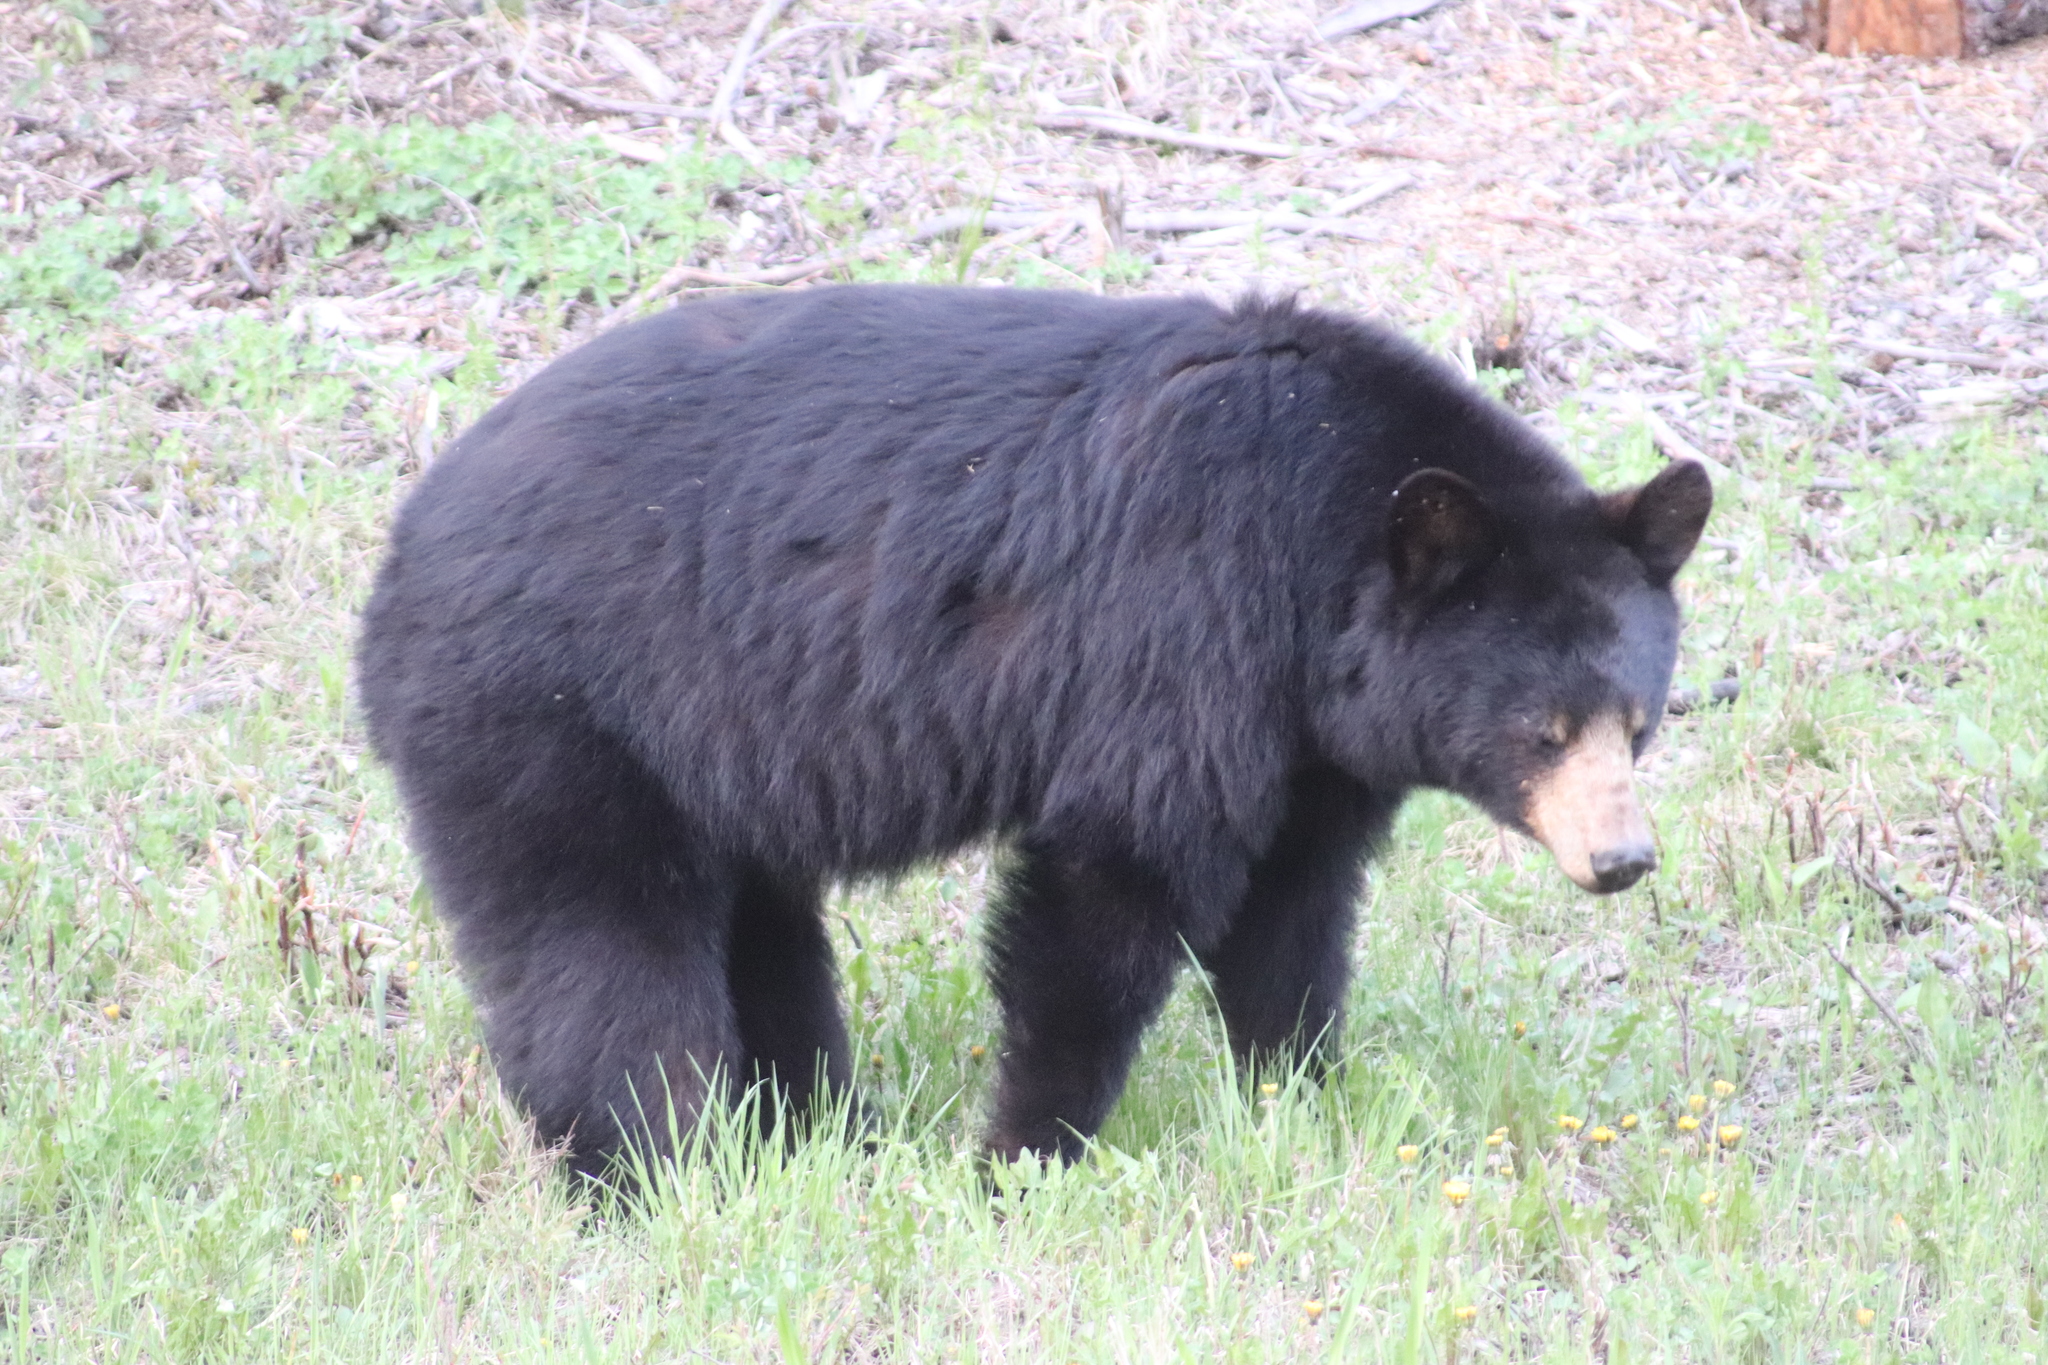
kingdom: Animalia
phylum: Chordata
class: Mammalia
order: Carnivora
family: Ursidae
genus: Ursus
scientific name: Ursus americanus
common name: American black bear
